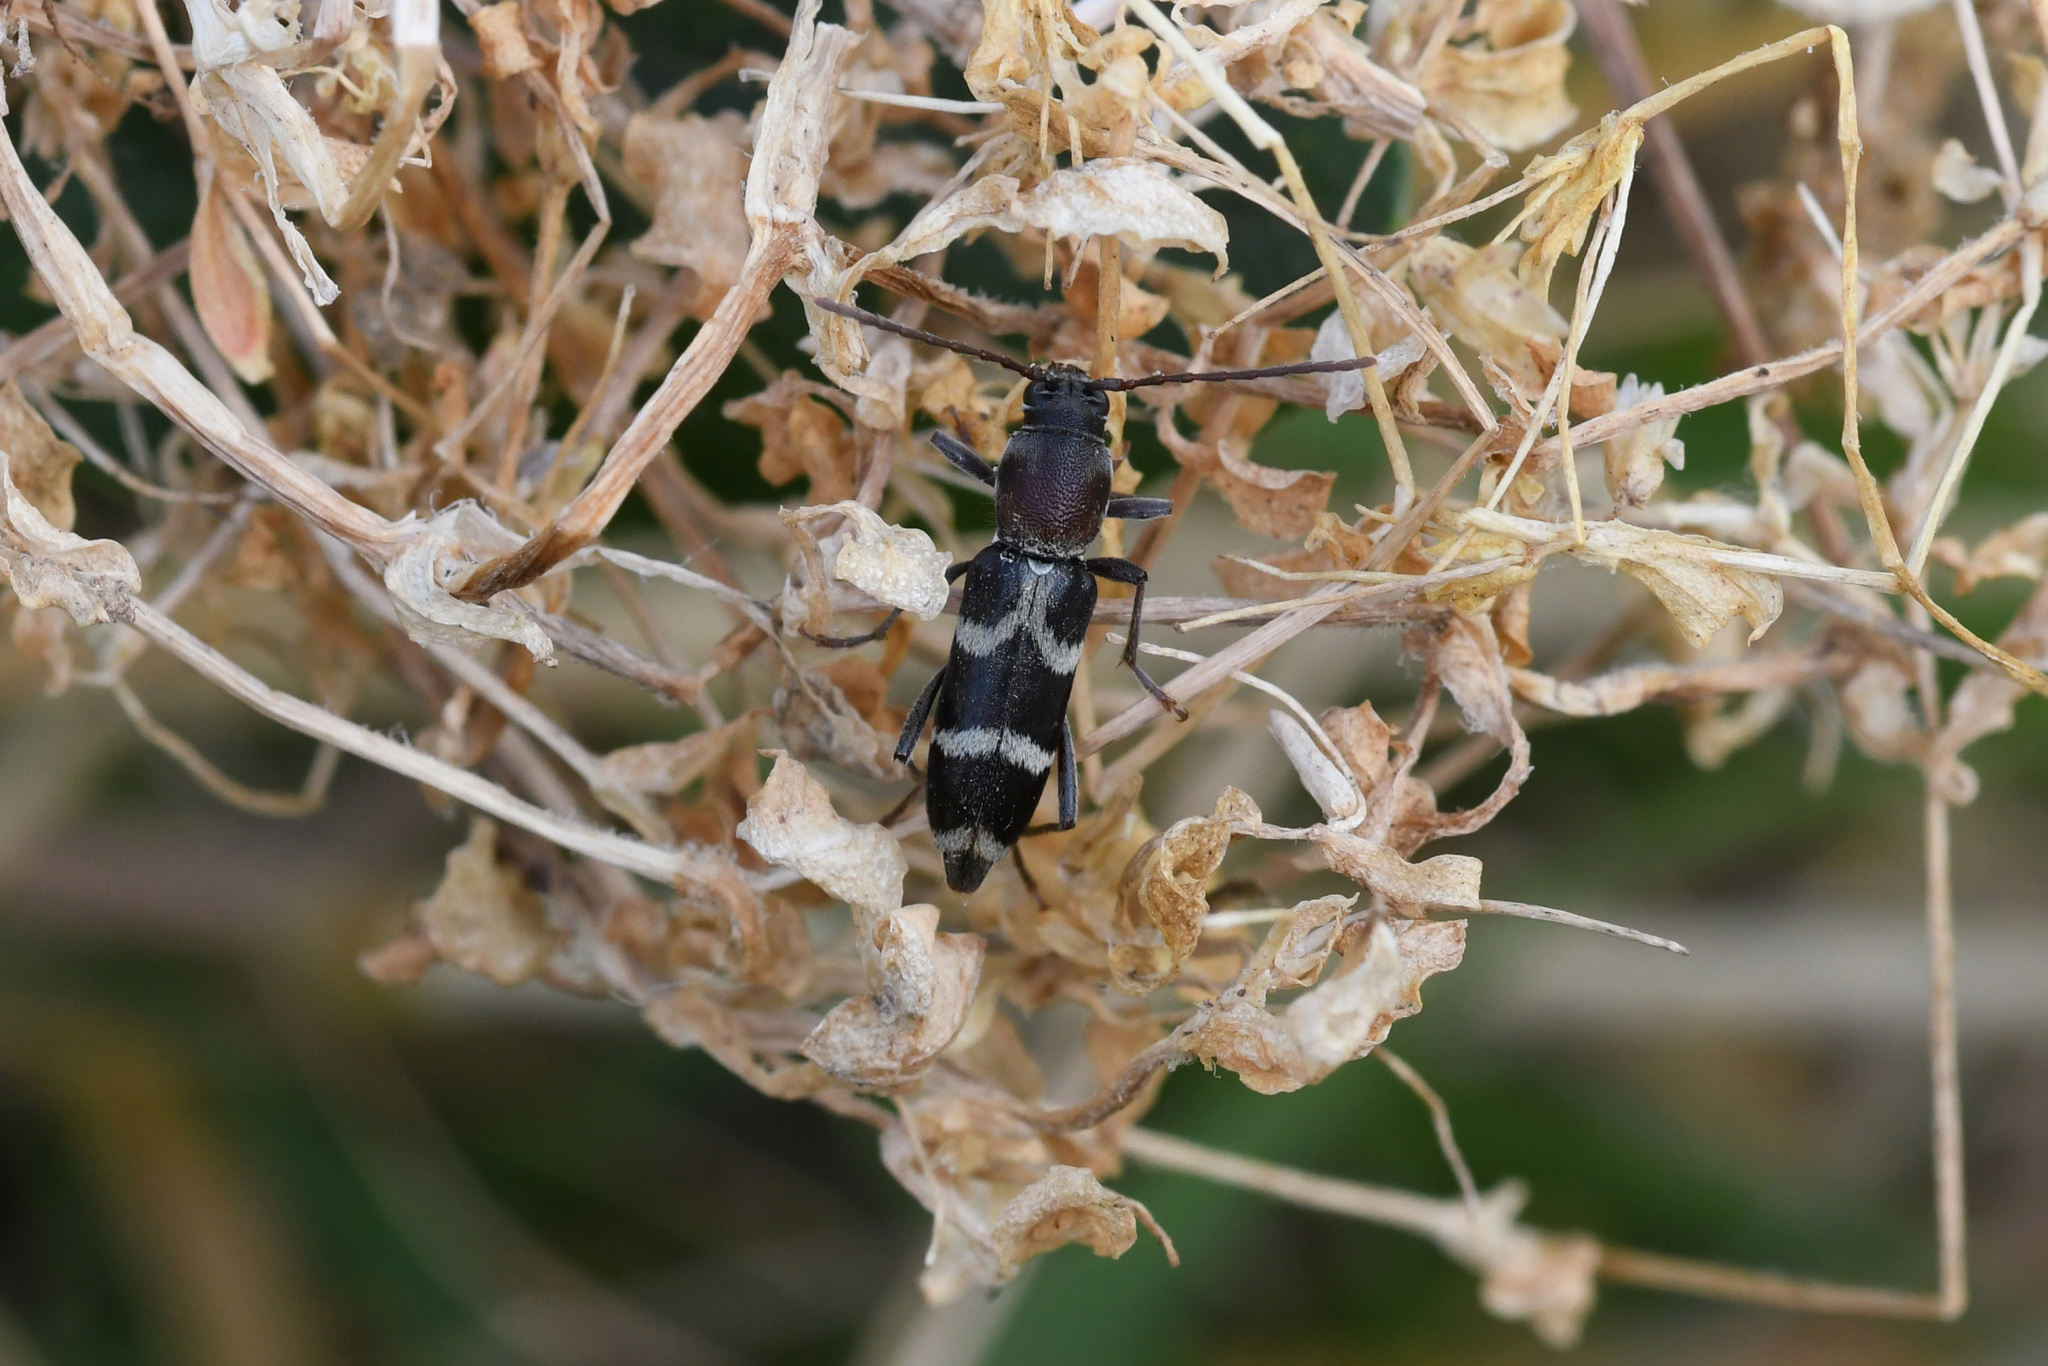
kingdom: Animalia
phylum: Arthropoda
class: Insecta
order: Coleoptera
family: Cerambycidae
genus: Chlorophorus
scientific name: Chlorophorus aegyptiacus
